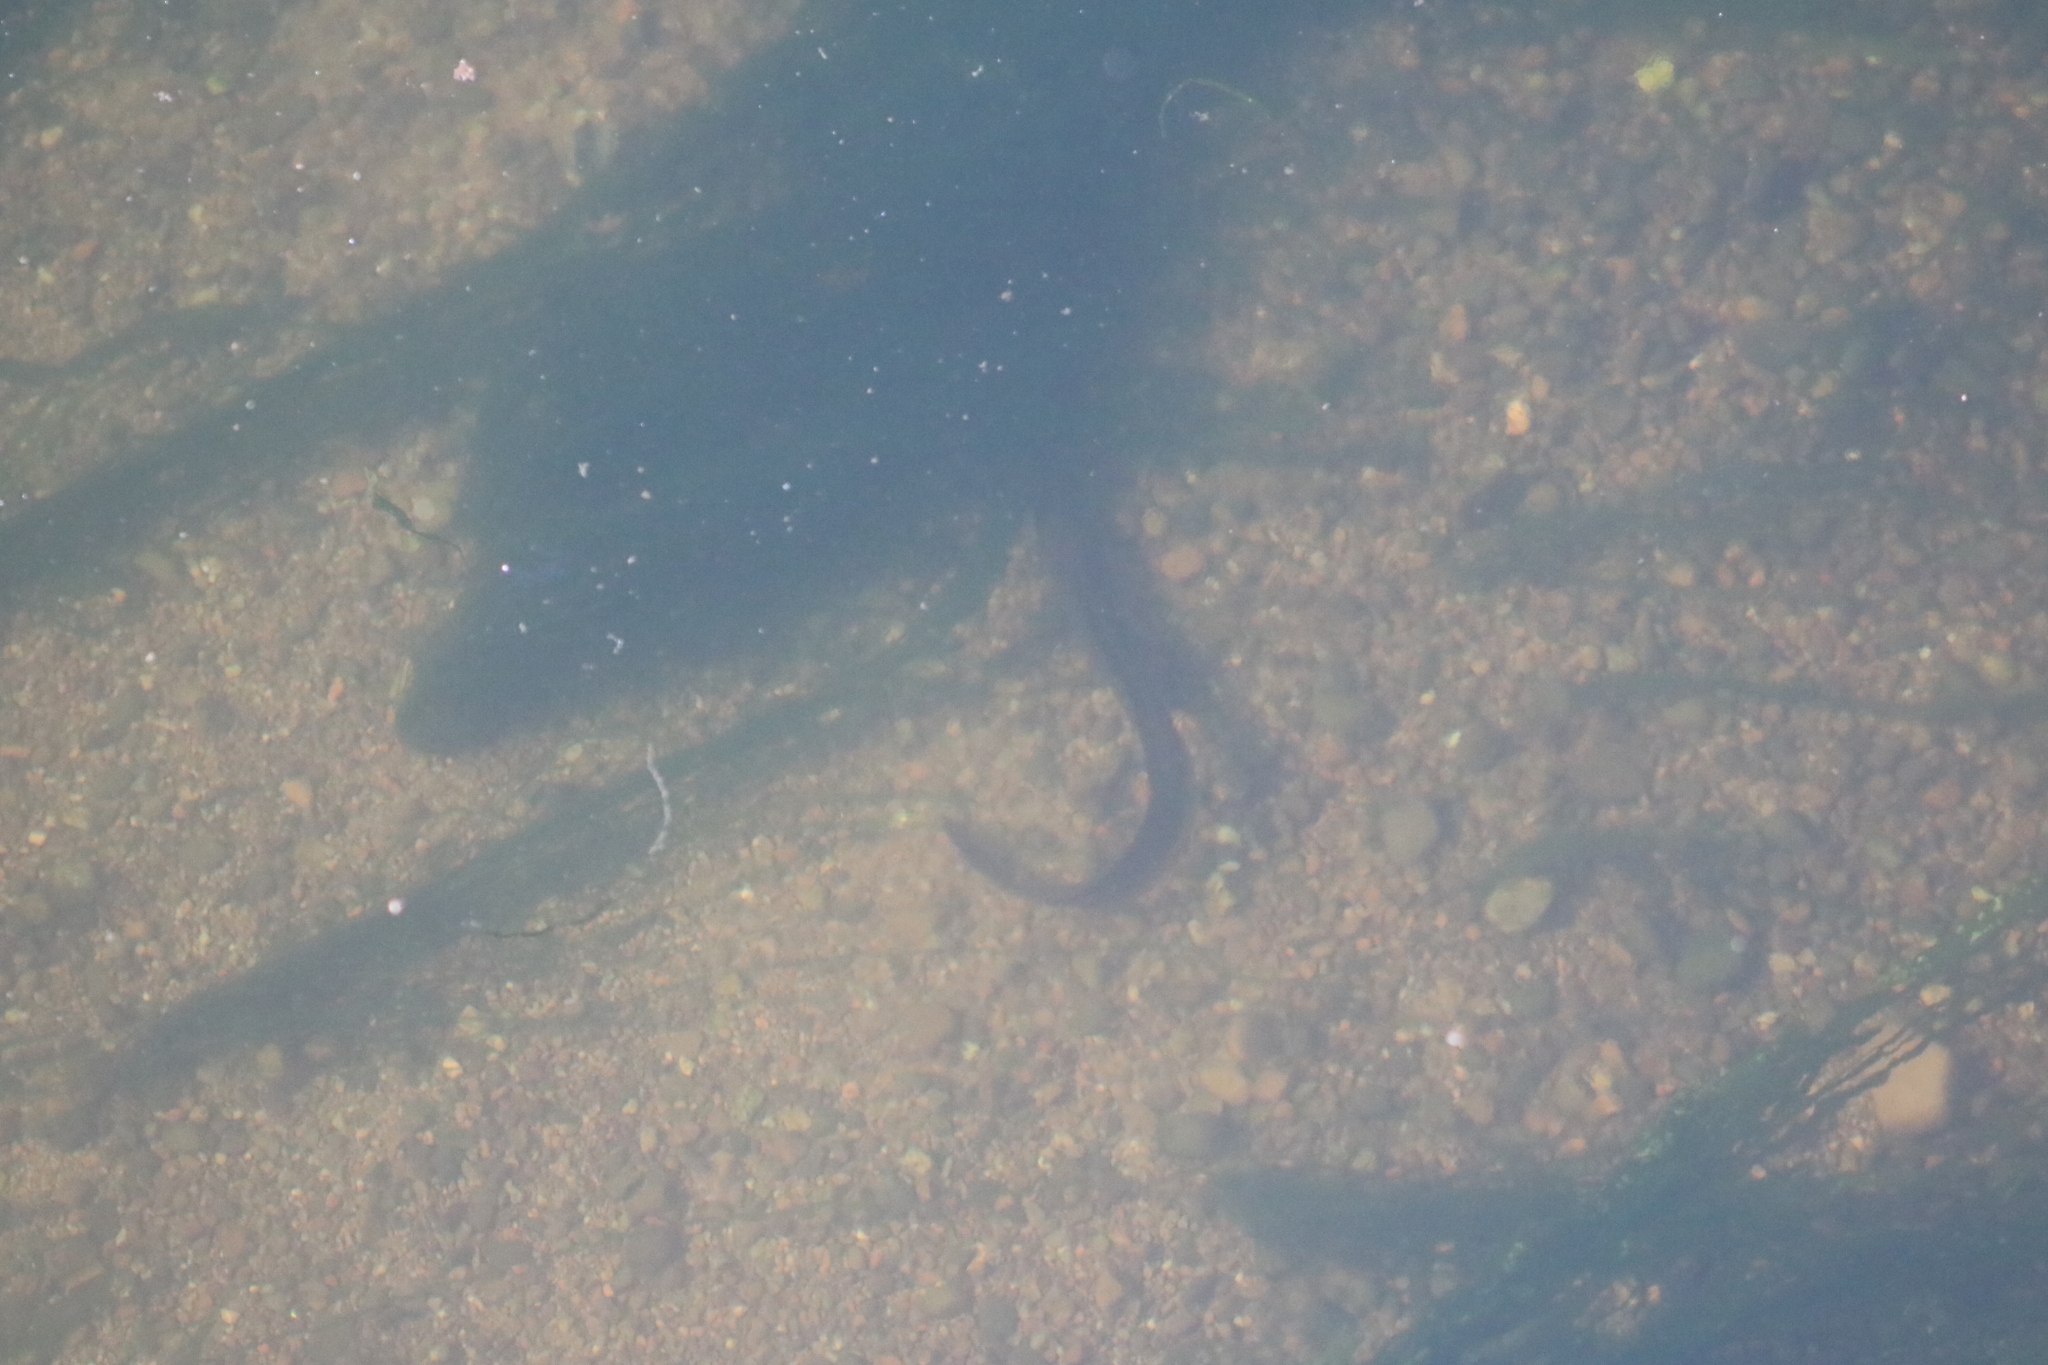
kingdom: Animalia
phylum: Chordata
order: Anguilliformes
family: Anguillidae
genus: Anguilla
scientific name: Anguilla anguilla
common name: European eel
